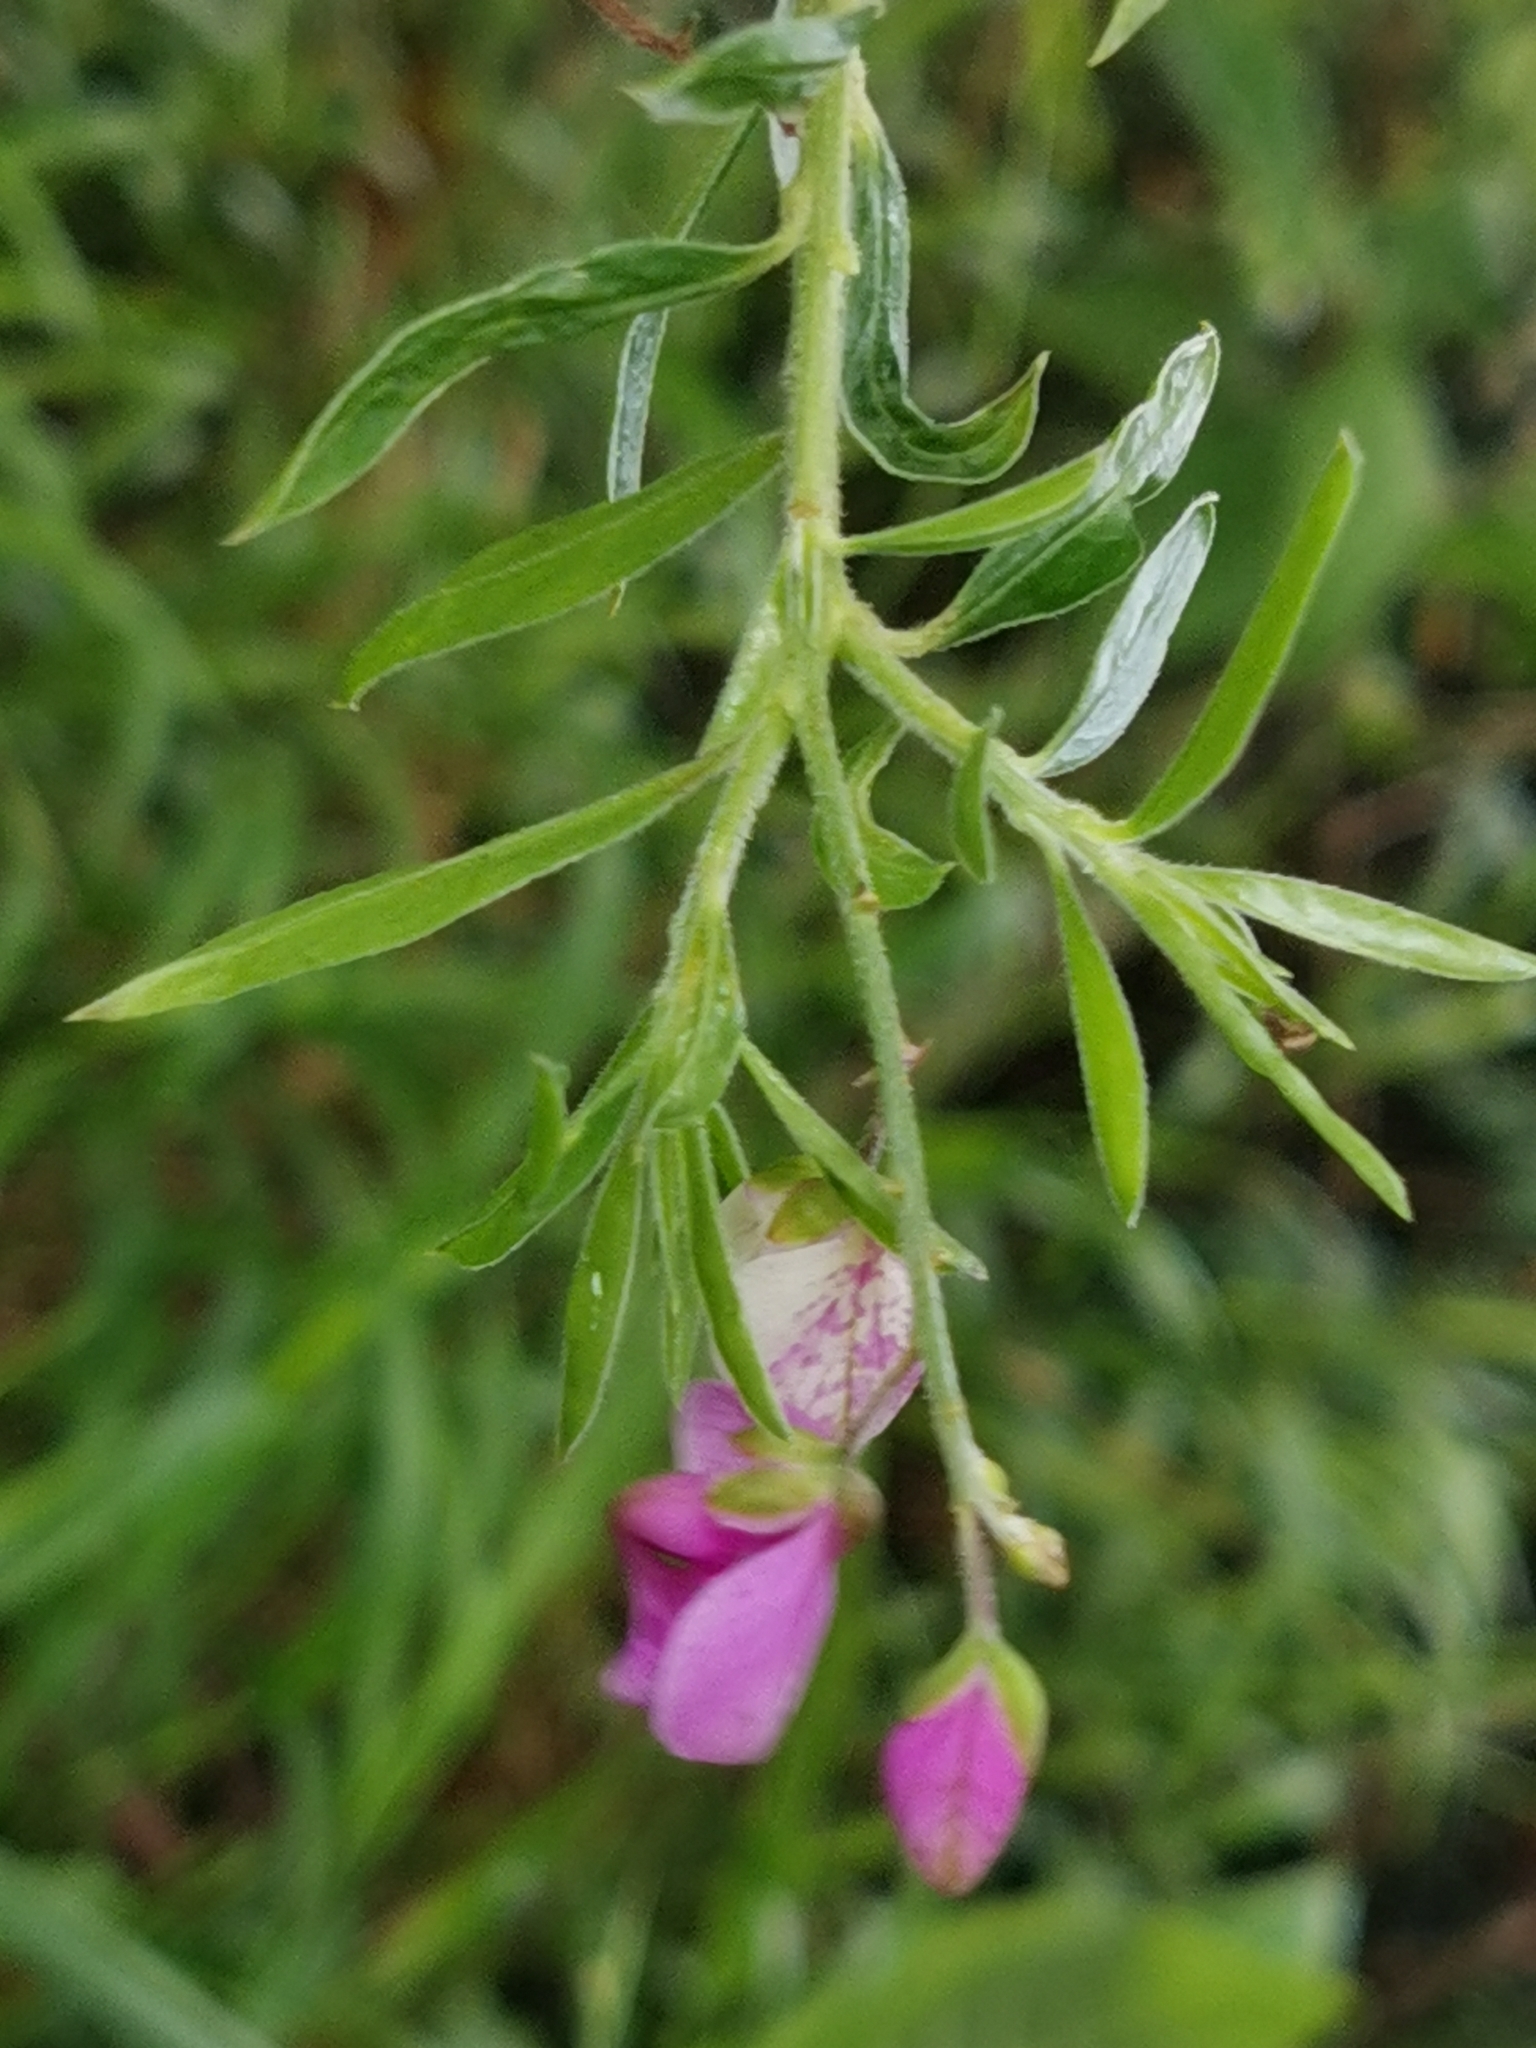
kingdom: Plantae
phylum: Tracheophyta
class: Magnoliopsida
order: Fabales
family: Polygalaceae
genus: Polygala
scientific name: Polygala virgata
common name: Milkwort
